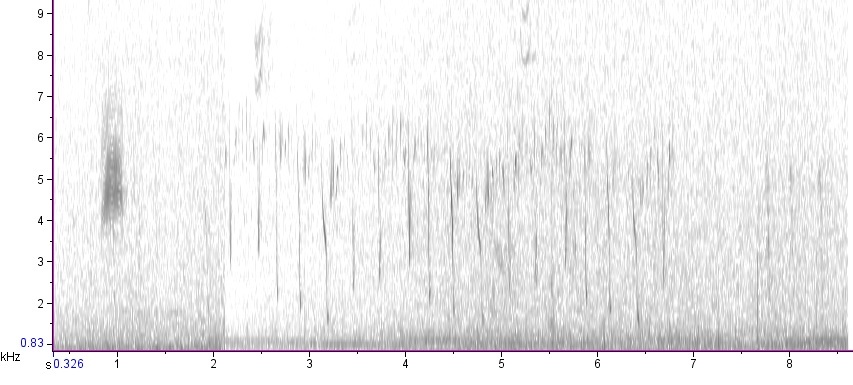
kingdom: Animalia
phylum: Chordata
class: Aves
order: Charadriiformes
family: Scolopacidae
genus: Scolopax
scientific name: Scolopax minor
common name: American woodcock
